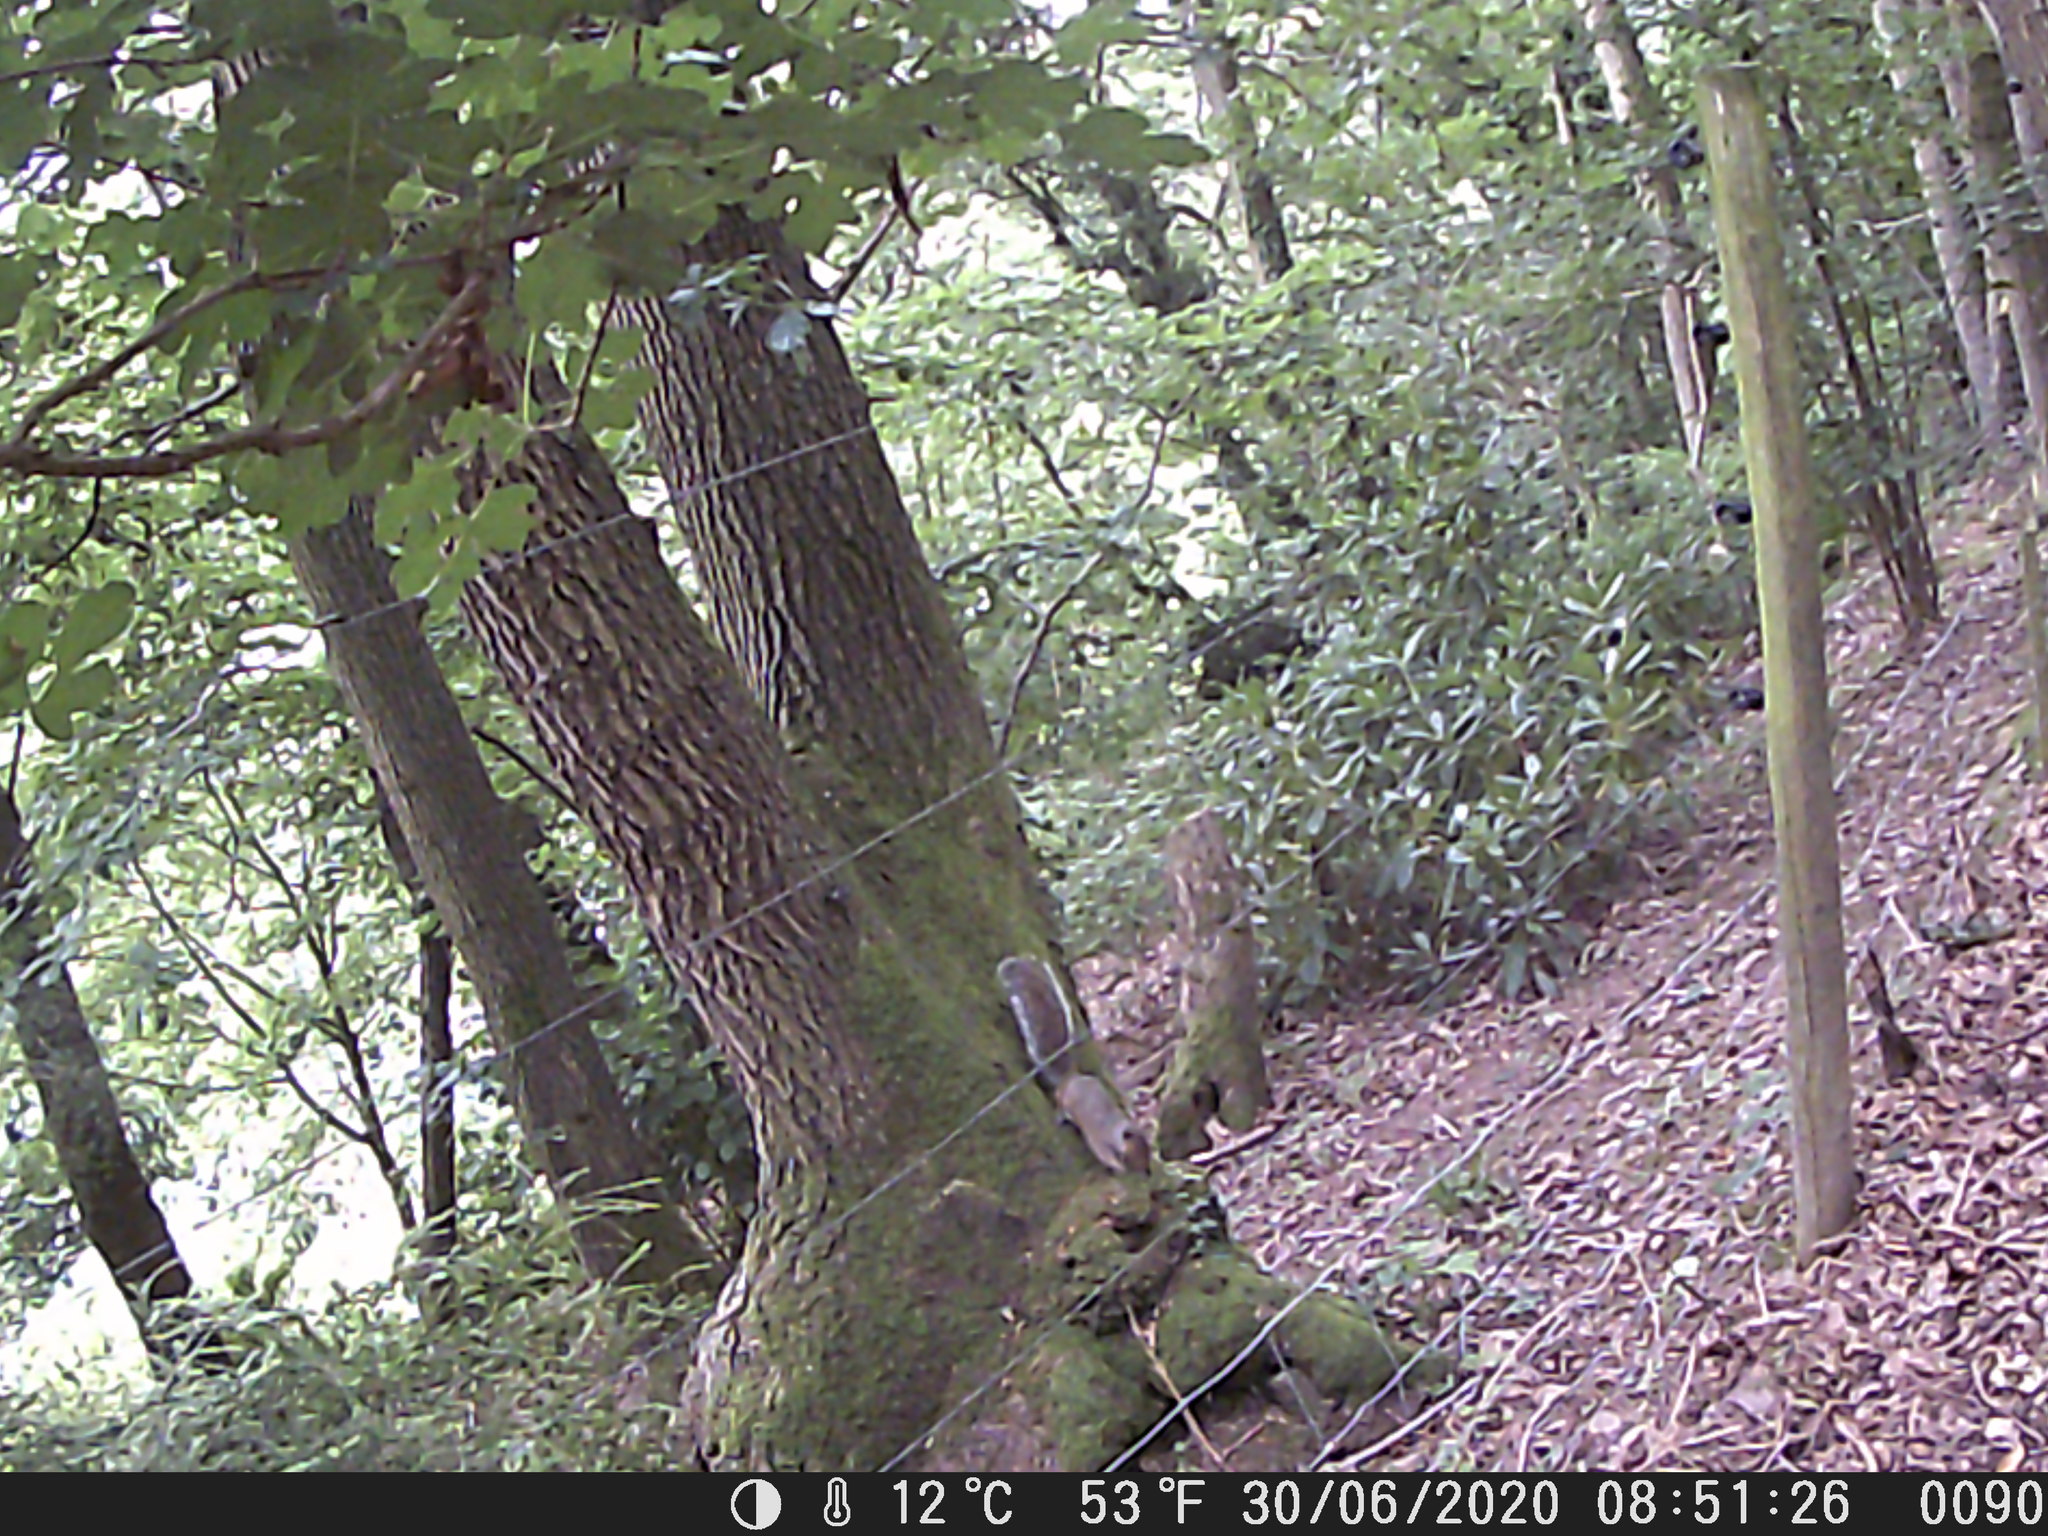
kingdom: Animalia
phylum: Chordata
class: Mammalia
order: Rodentia
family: Sciuridae
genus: Sciurus
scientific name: Sciurus carolinensis
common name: Eastern gray squirrel
